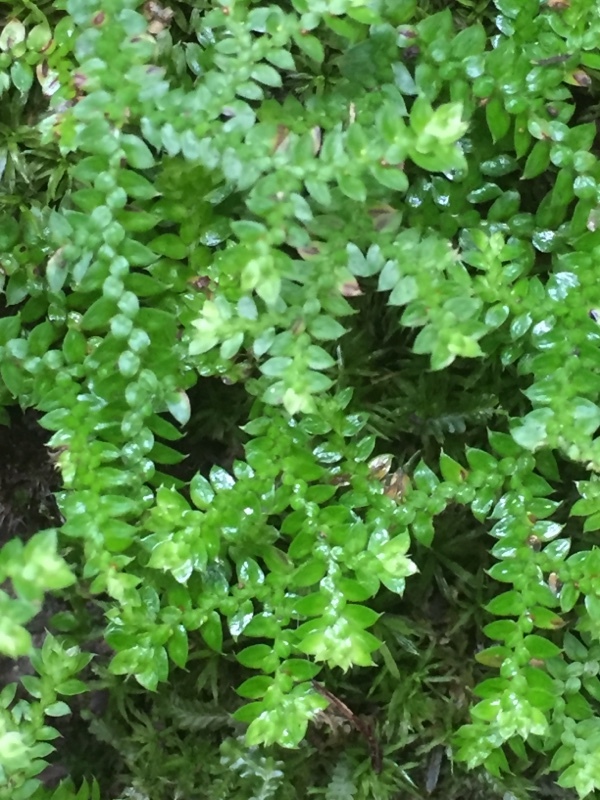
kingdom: Plantae
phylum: Tracheophyta
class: Lycopodiopsida
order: Selaginellales
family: Selaginellaceae
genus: Selaginella
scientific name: Selaginella denticulata
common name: Toothed-leaved clubmoss
